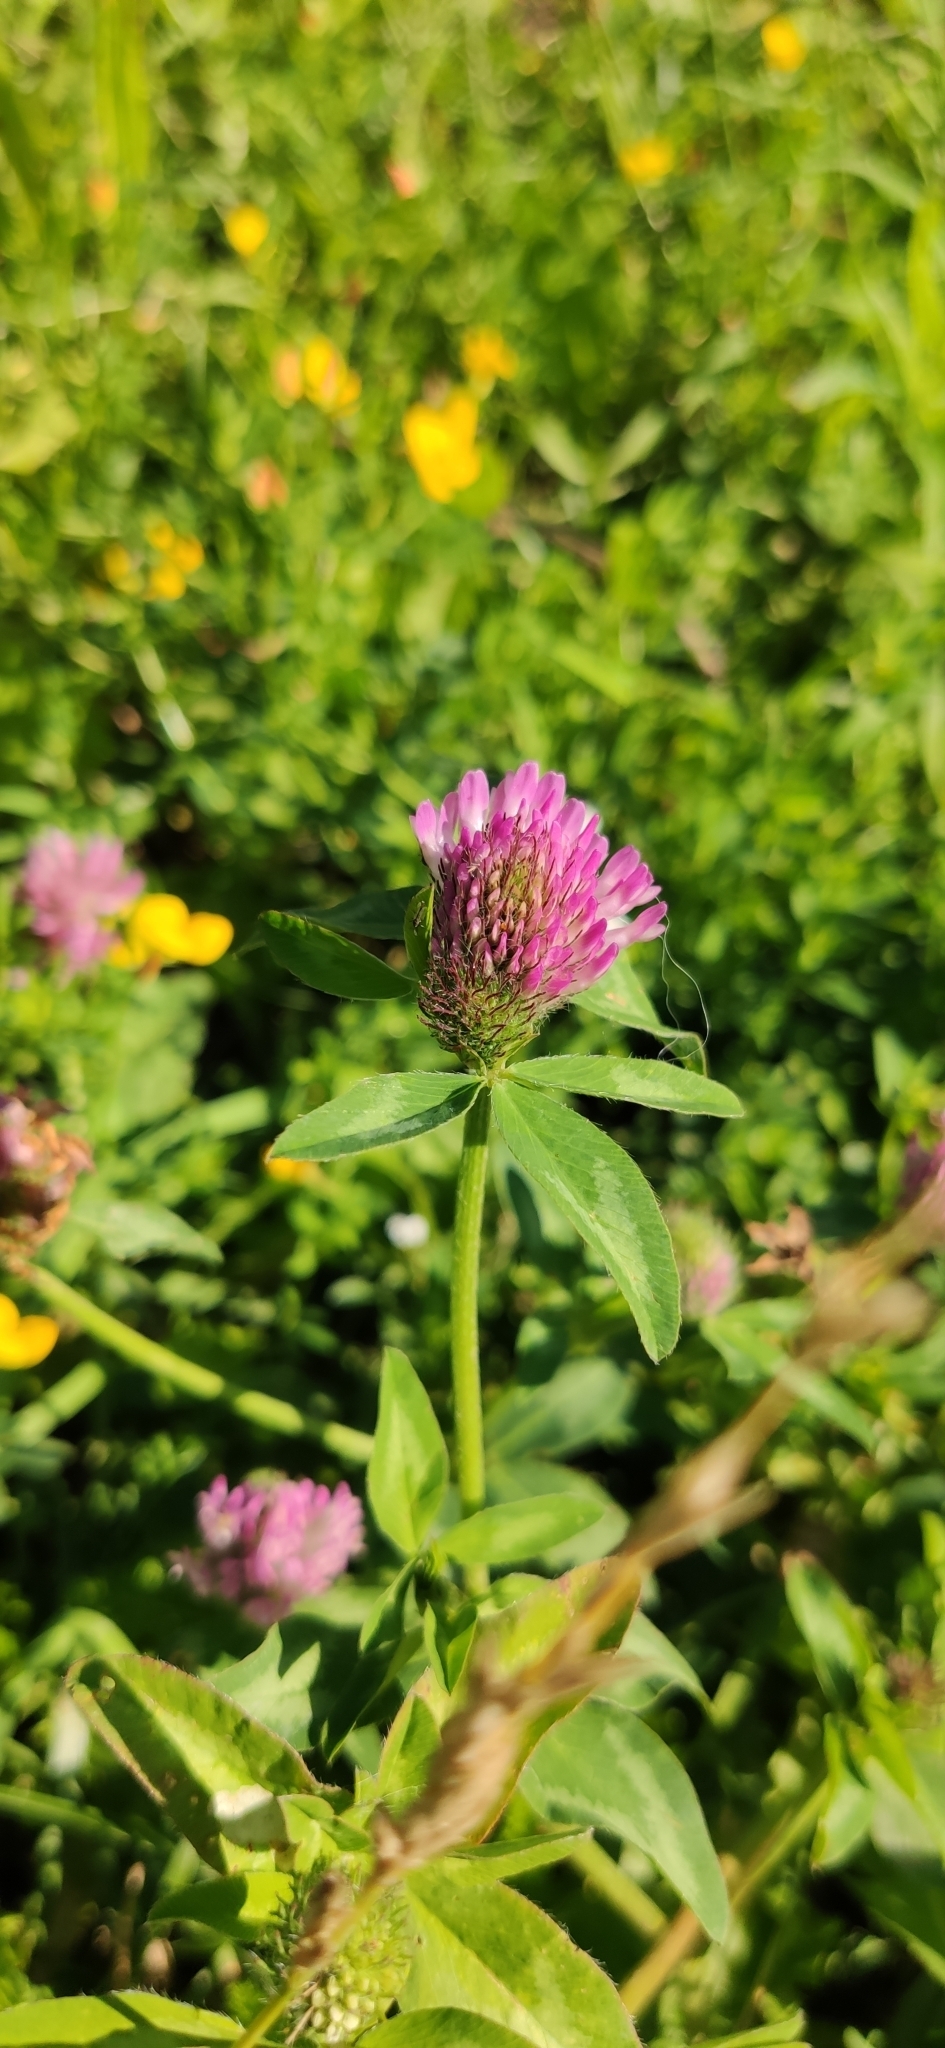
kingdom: Plantae
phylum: Tracheophyta
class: Magnoliopsida
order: Fabales
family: Fabaceae
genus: Trifolium
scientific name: Trifolium pratense
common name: Red clover
